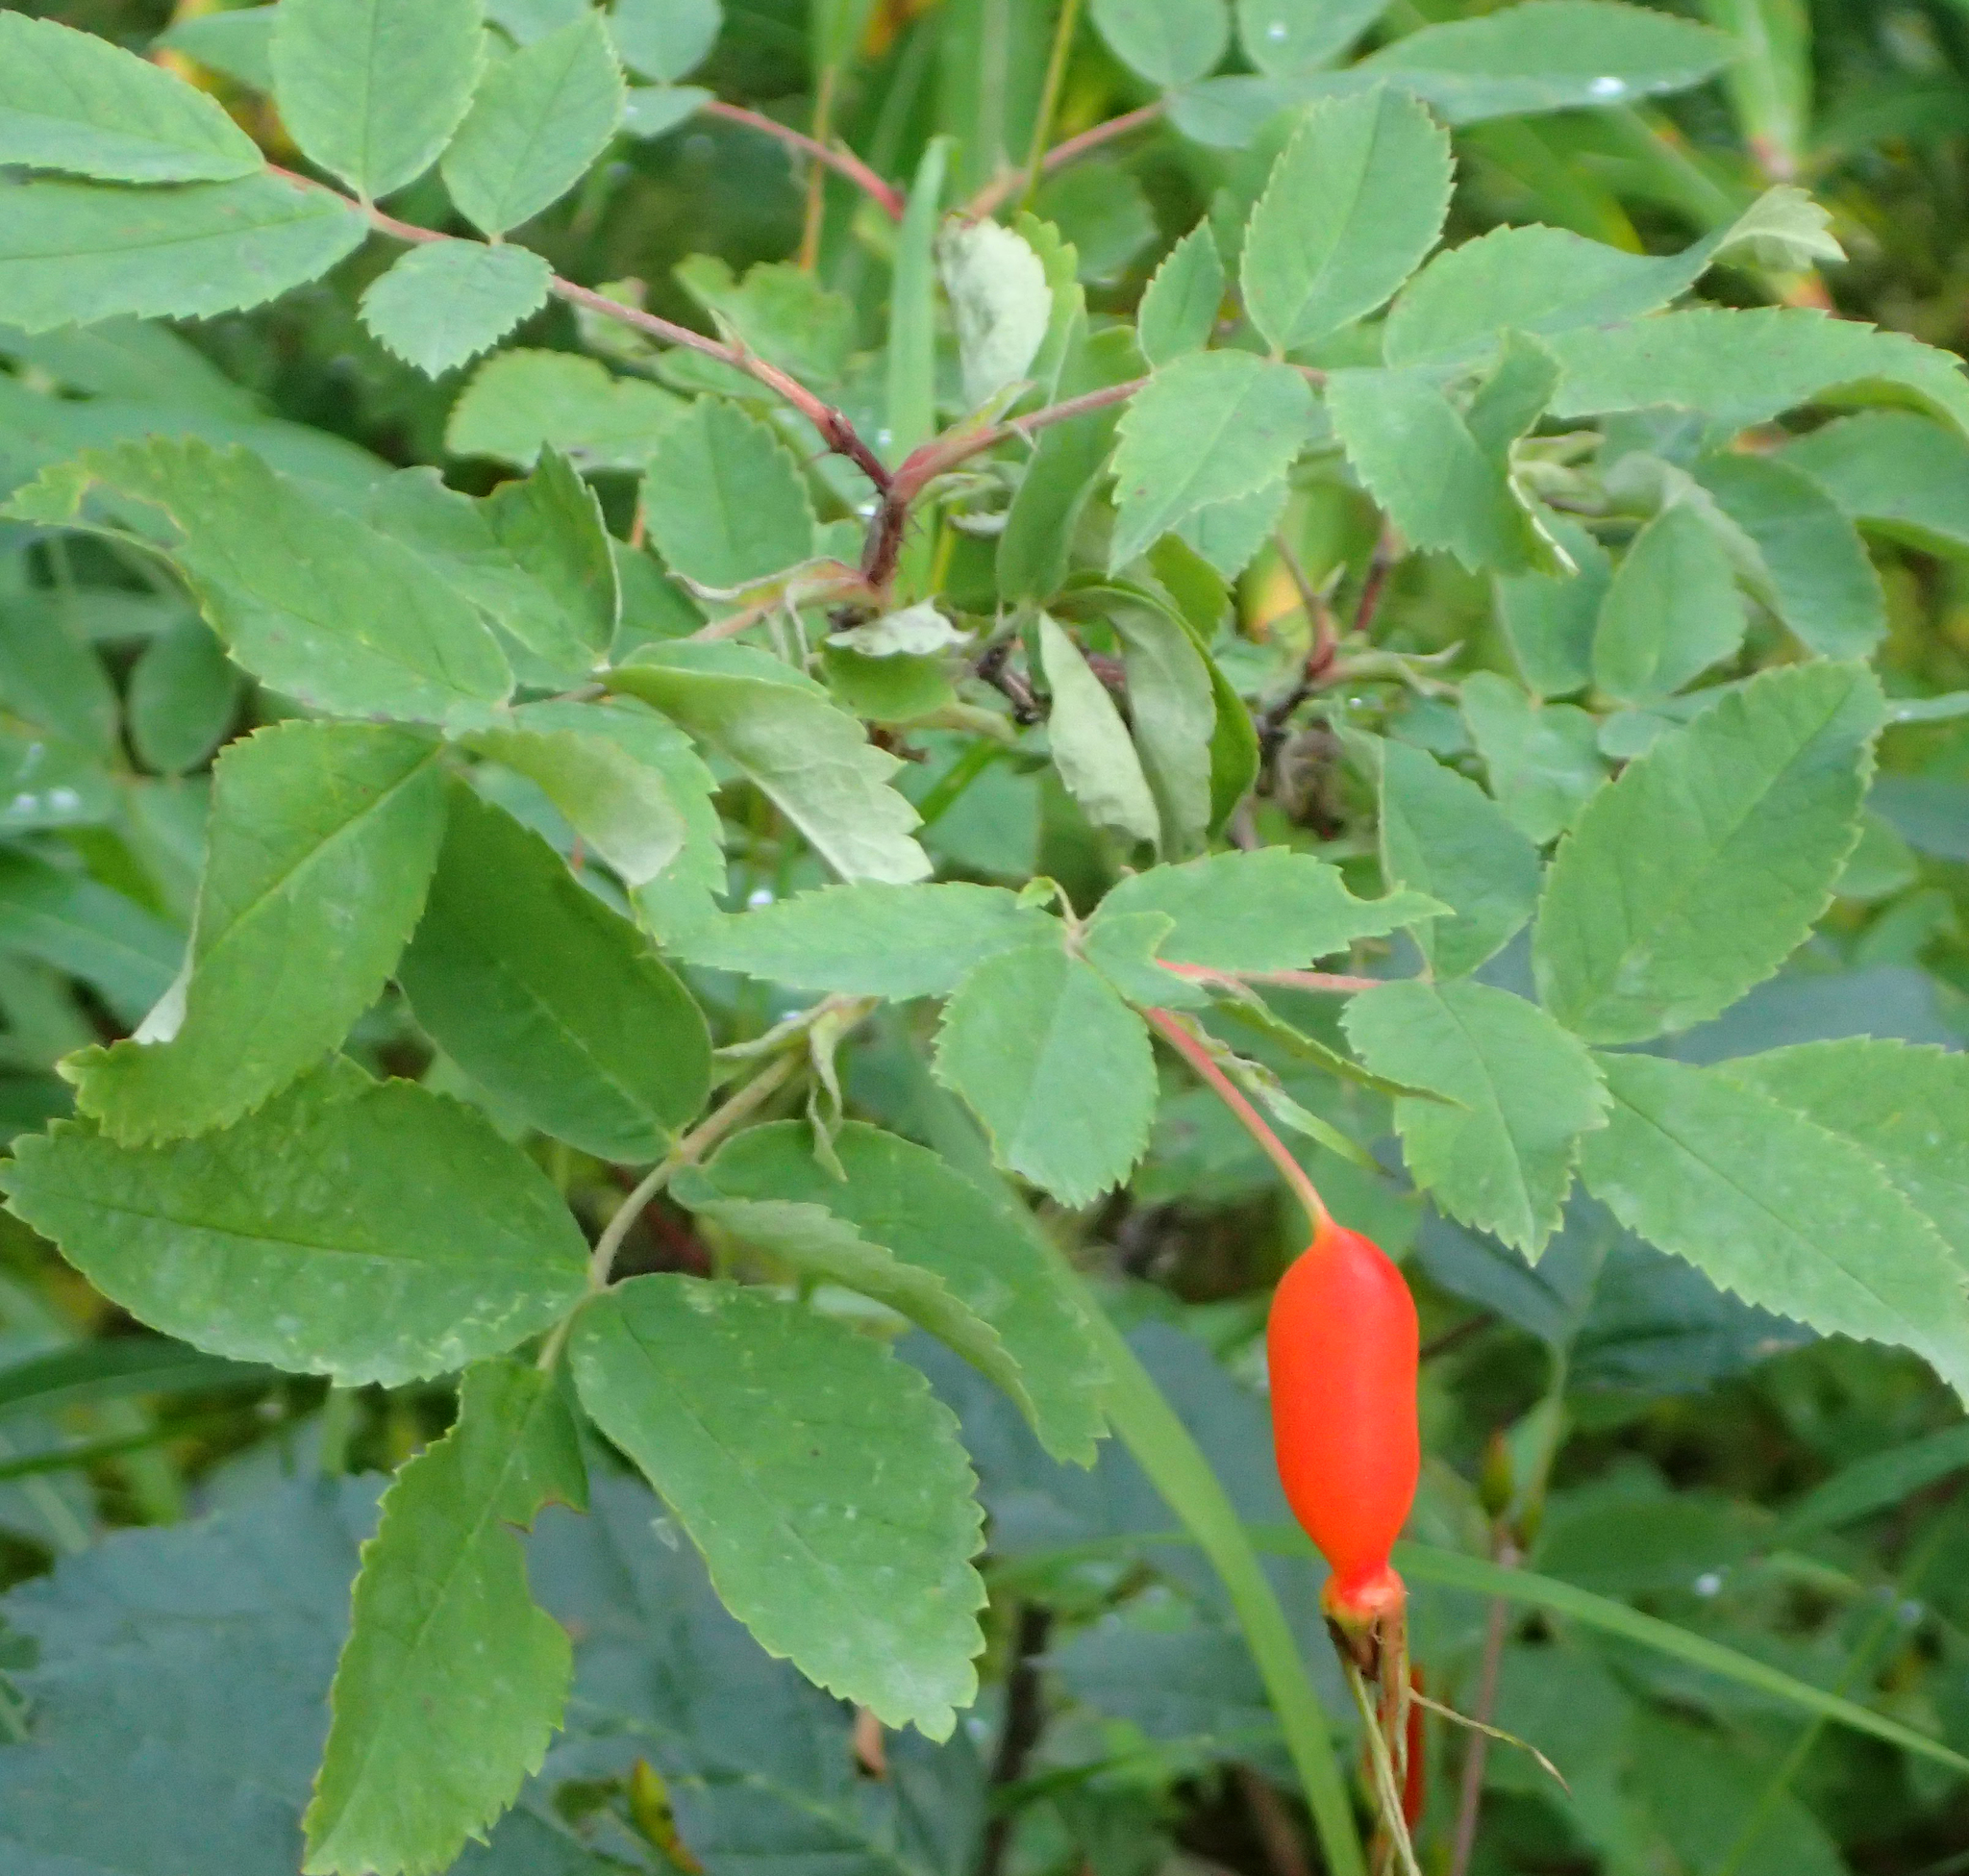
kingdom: Plantae
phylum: Tracheophyta
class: Magnoliopsida
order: Rosales
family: Rosaceae
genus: Rosa
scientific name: Rosa acicularis
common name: Prickly rose
